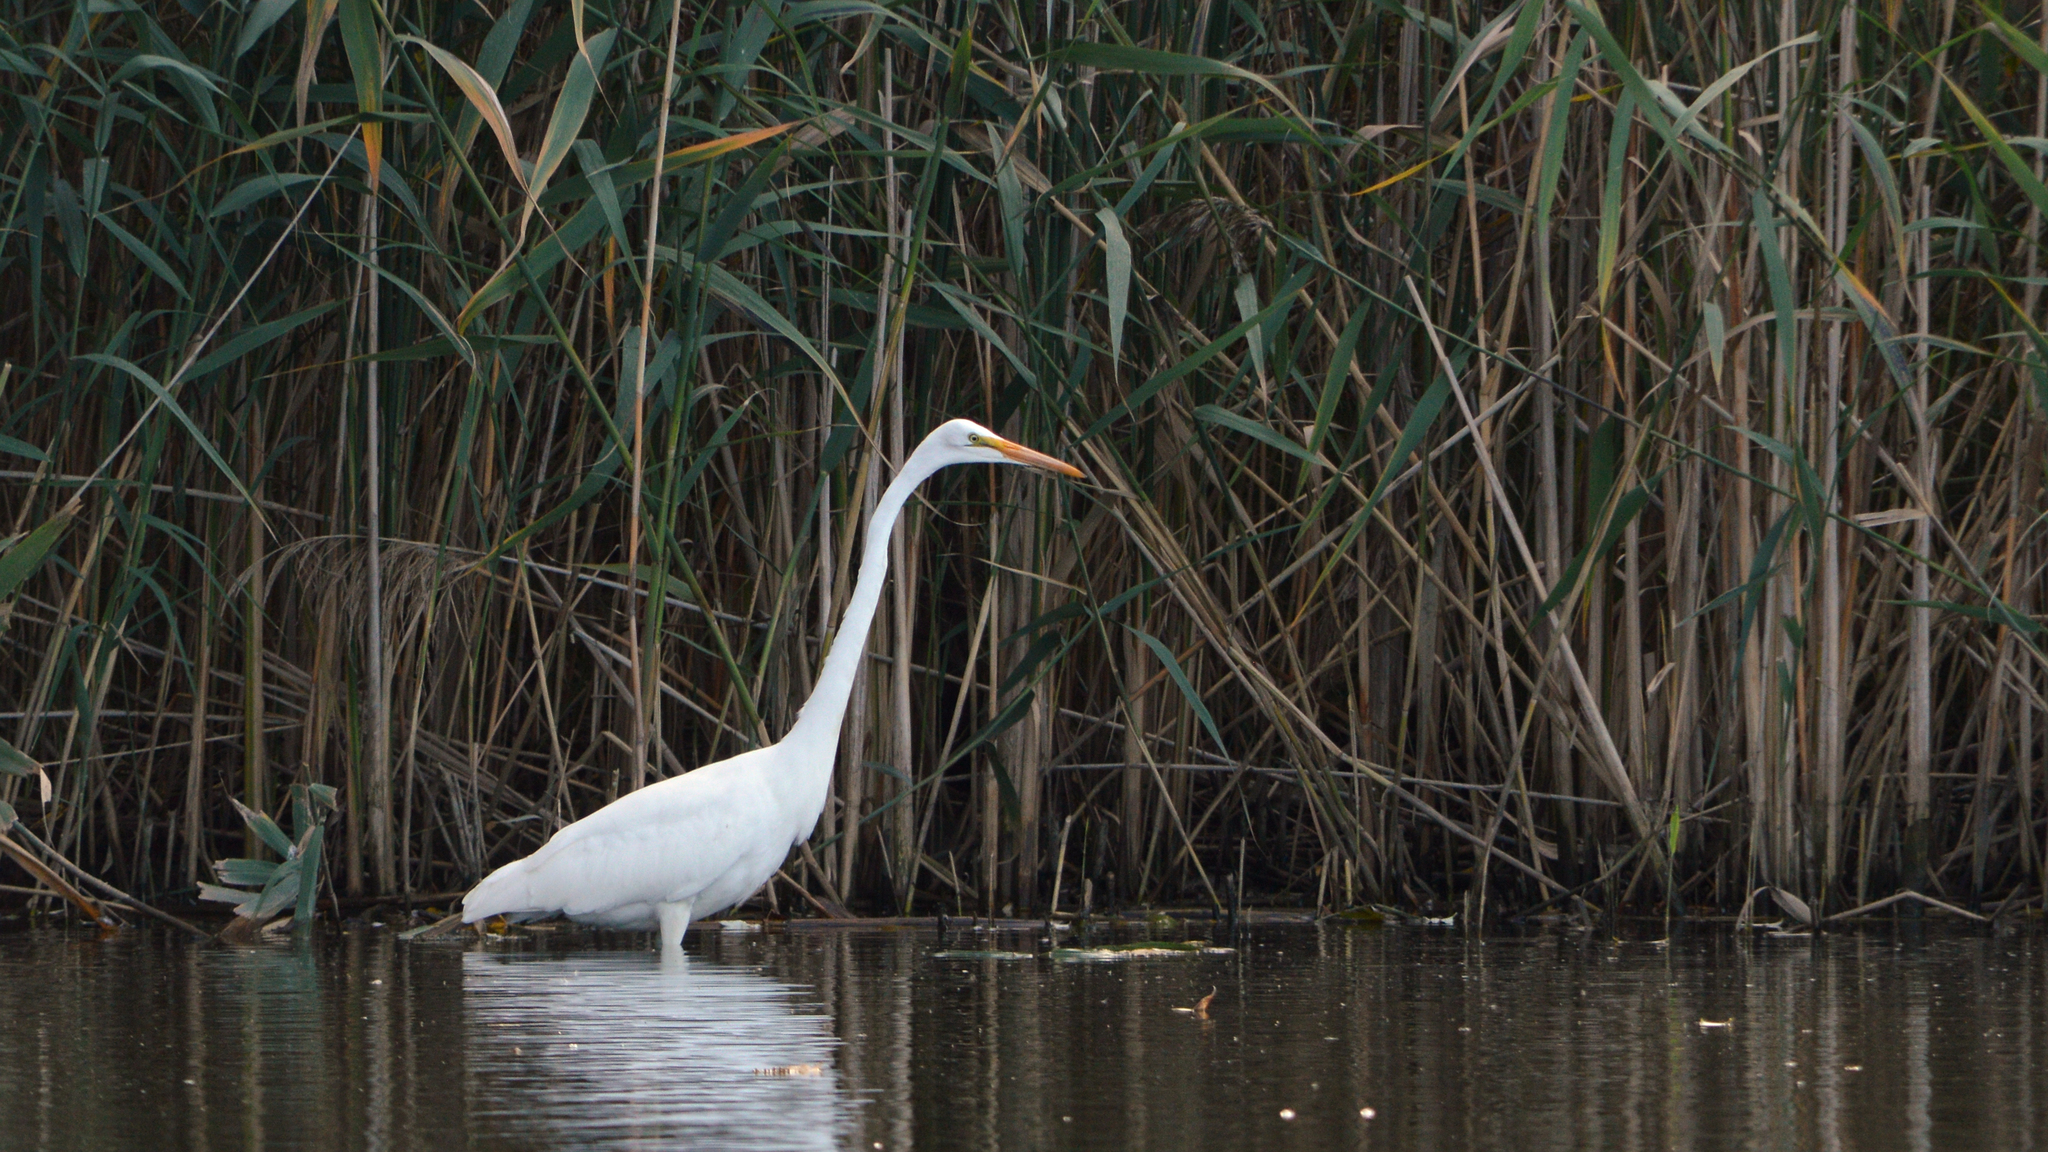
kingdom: Animalia
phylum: Chordata
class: Aves
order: Pelecaniformes
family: Ardeidae
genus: Ardea
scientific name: Ardea alba
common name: Great egret
